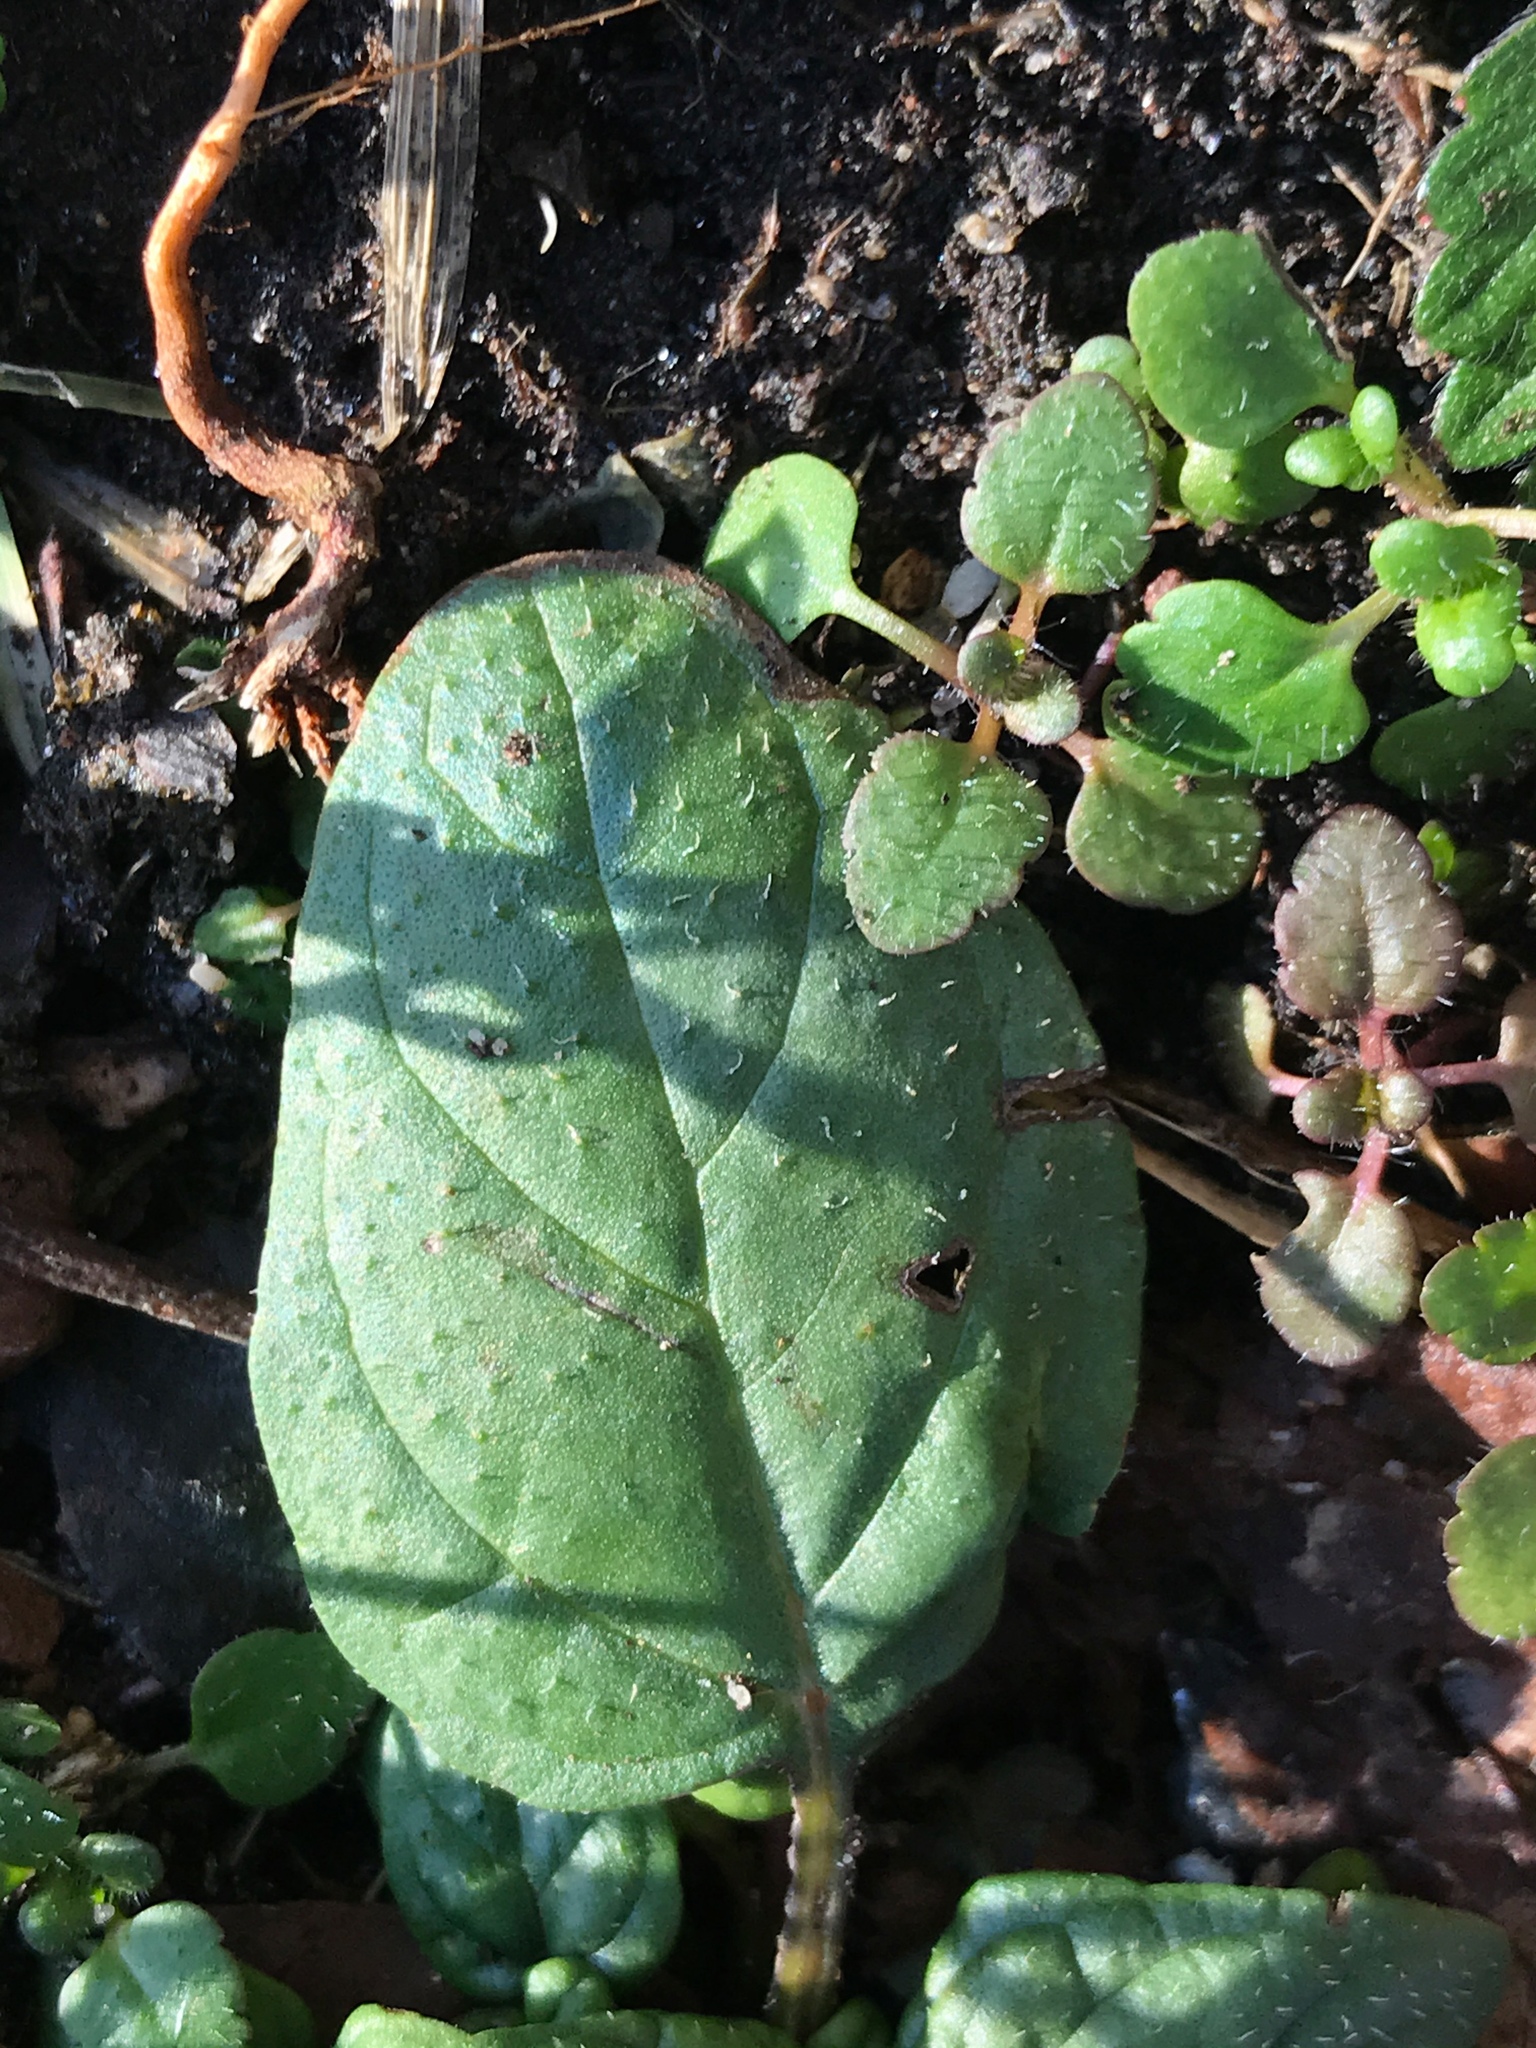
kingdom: Plantae
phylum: Tracheophyta
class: Magnoliopsida
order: Lamiales
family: Lamiaceae
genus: Prunella
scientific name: Prunella vulgaris
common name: Heal-all
